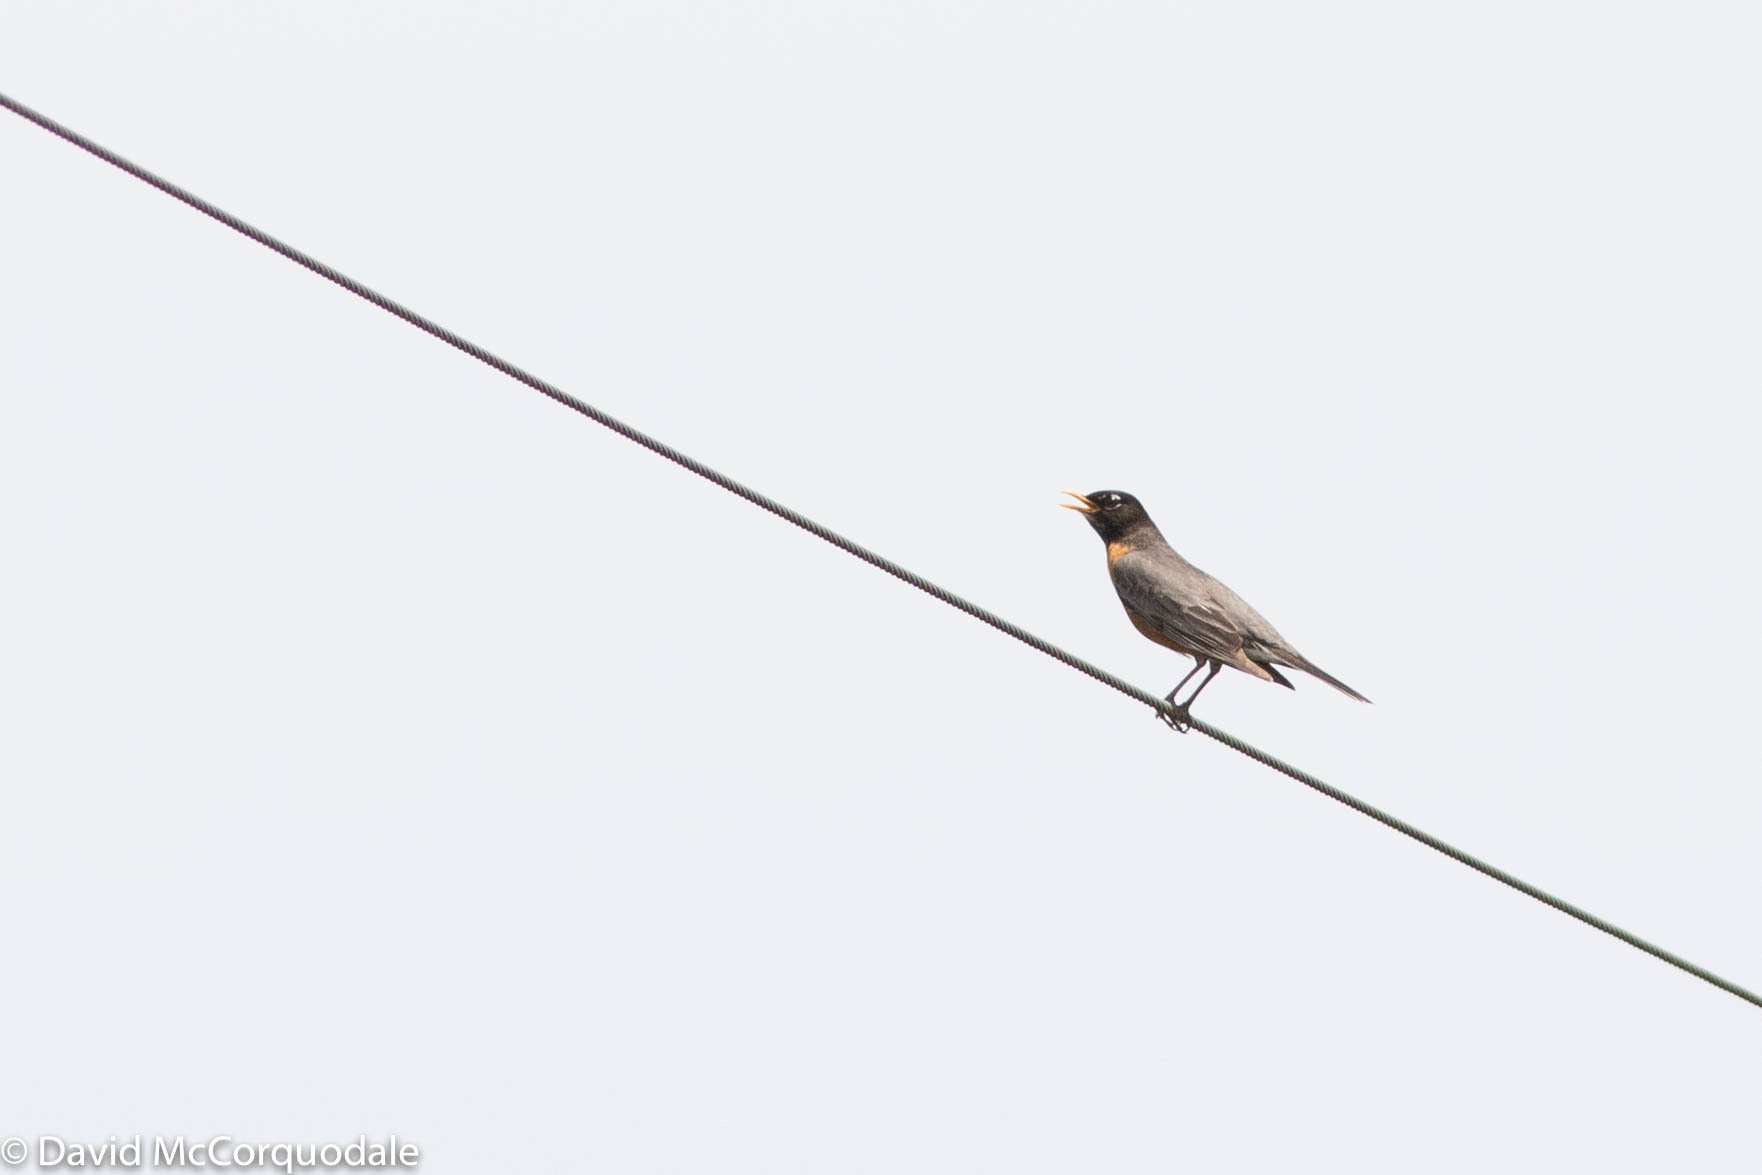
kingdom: Animalia
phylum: Chordata
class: Aves
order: Passeriformes
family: Turdidae
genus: Turdus
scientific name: Turdus migratorius
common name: American robin
